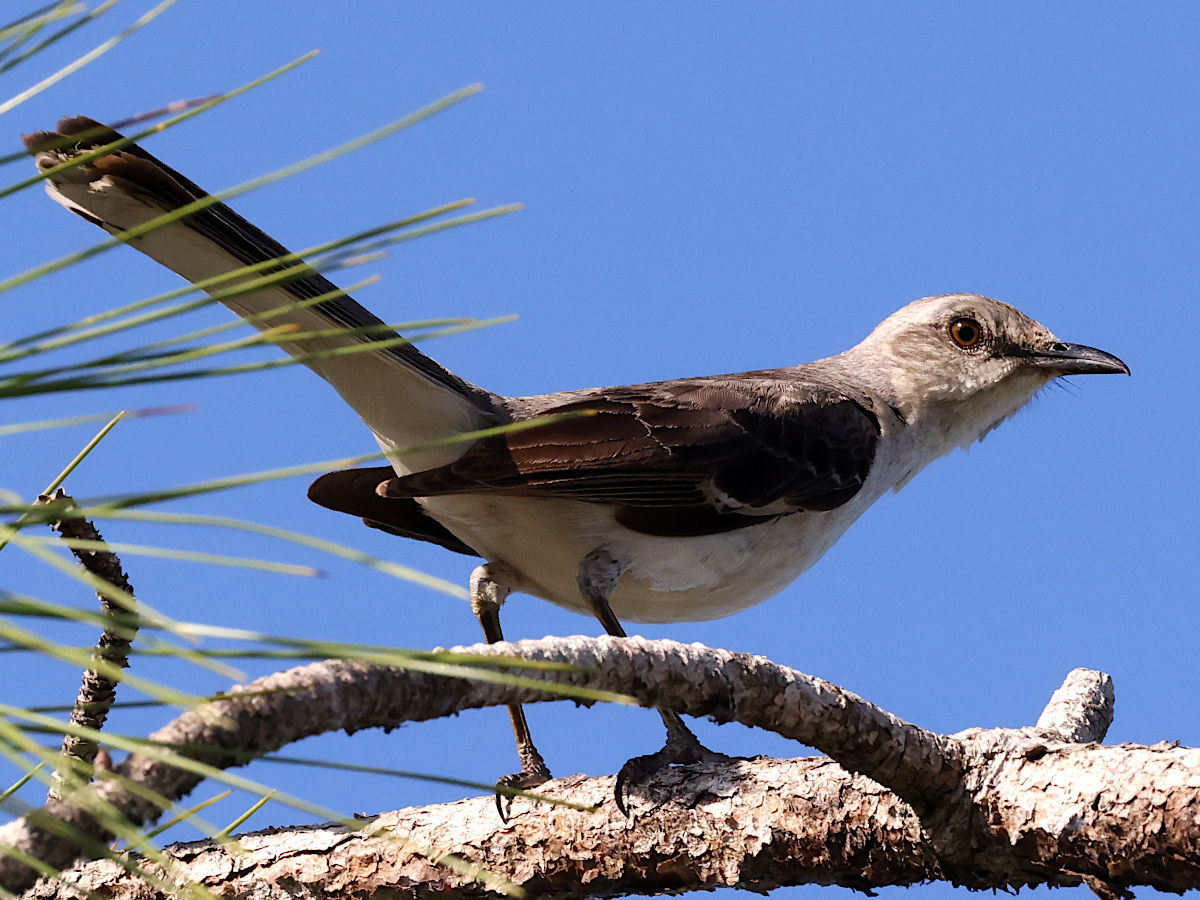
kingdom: Animalia
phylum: Chordata
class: Aves
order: Passeriformes
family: Mimidae
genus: Mimus
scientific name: Mimus polyglottos
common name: Northern mockingbird
